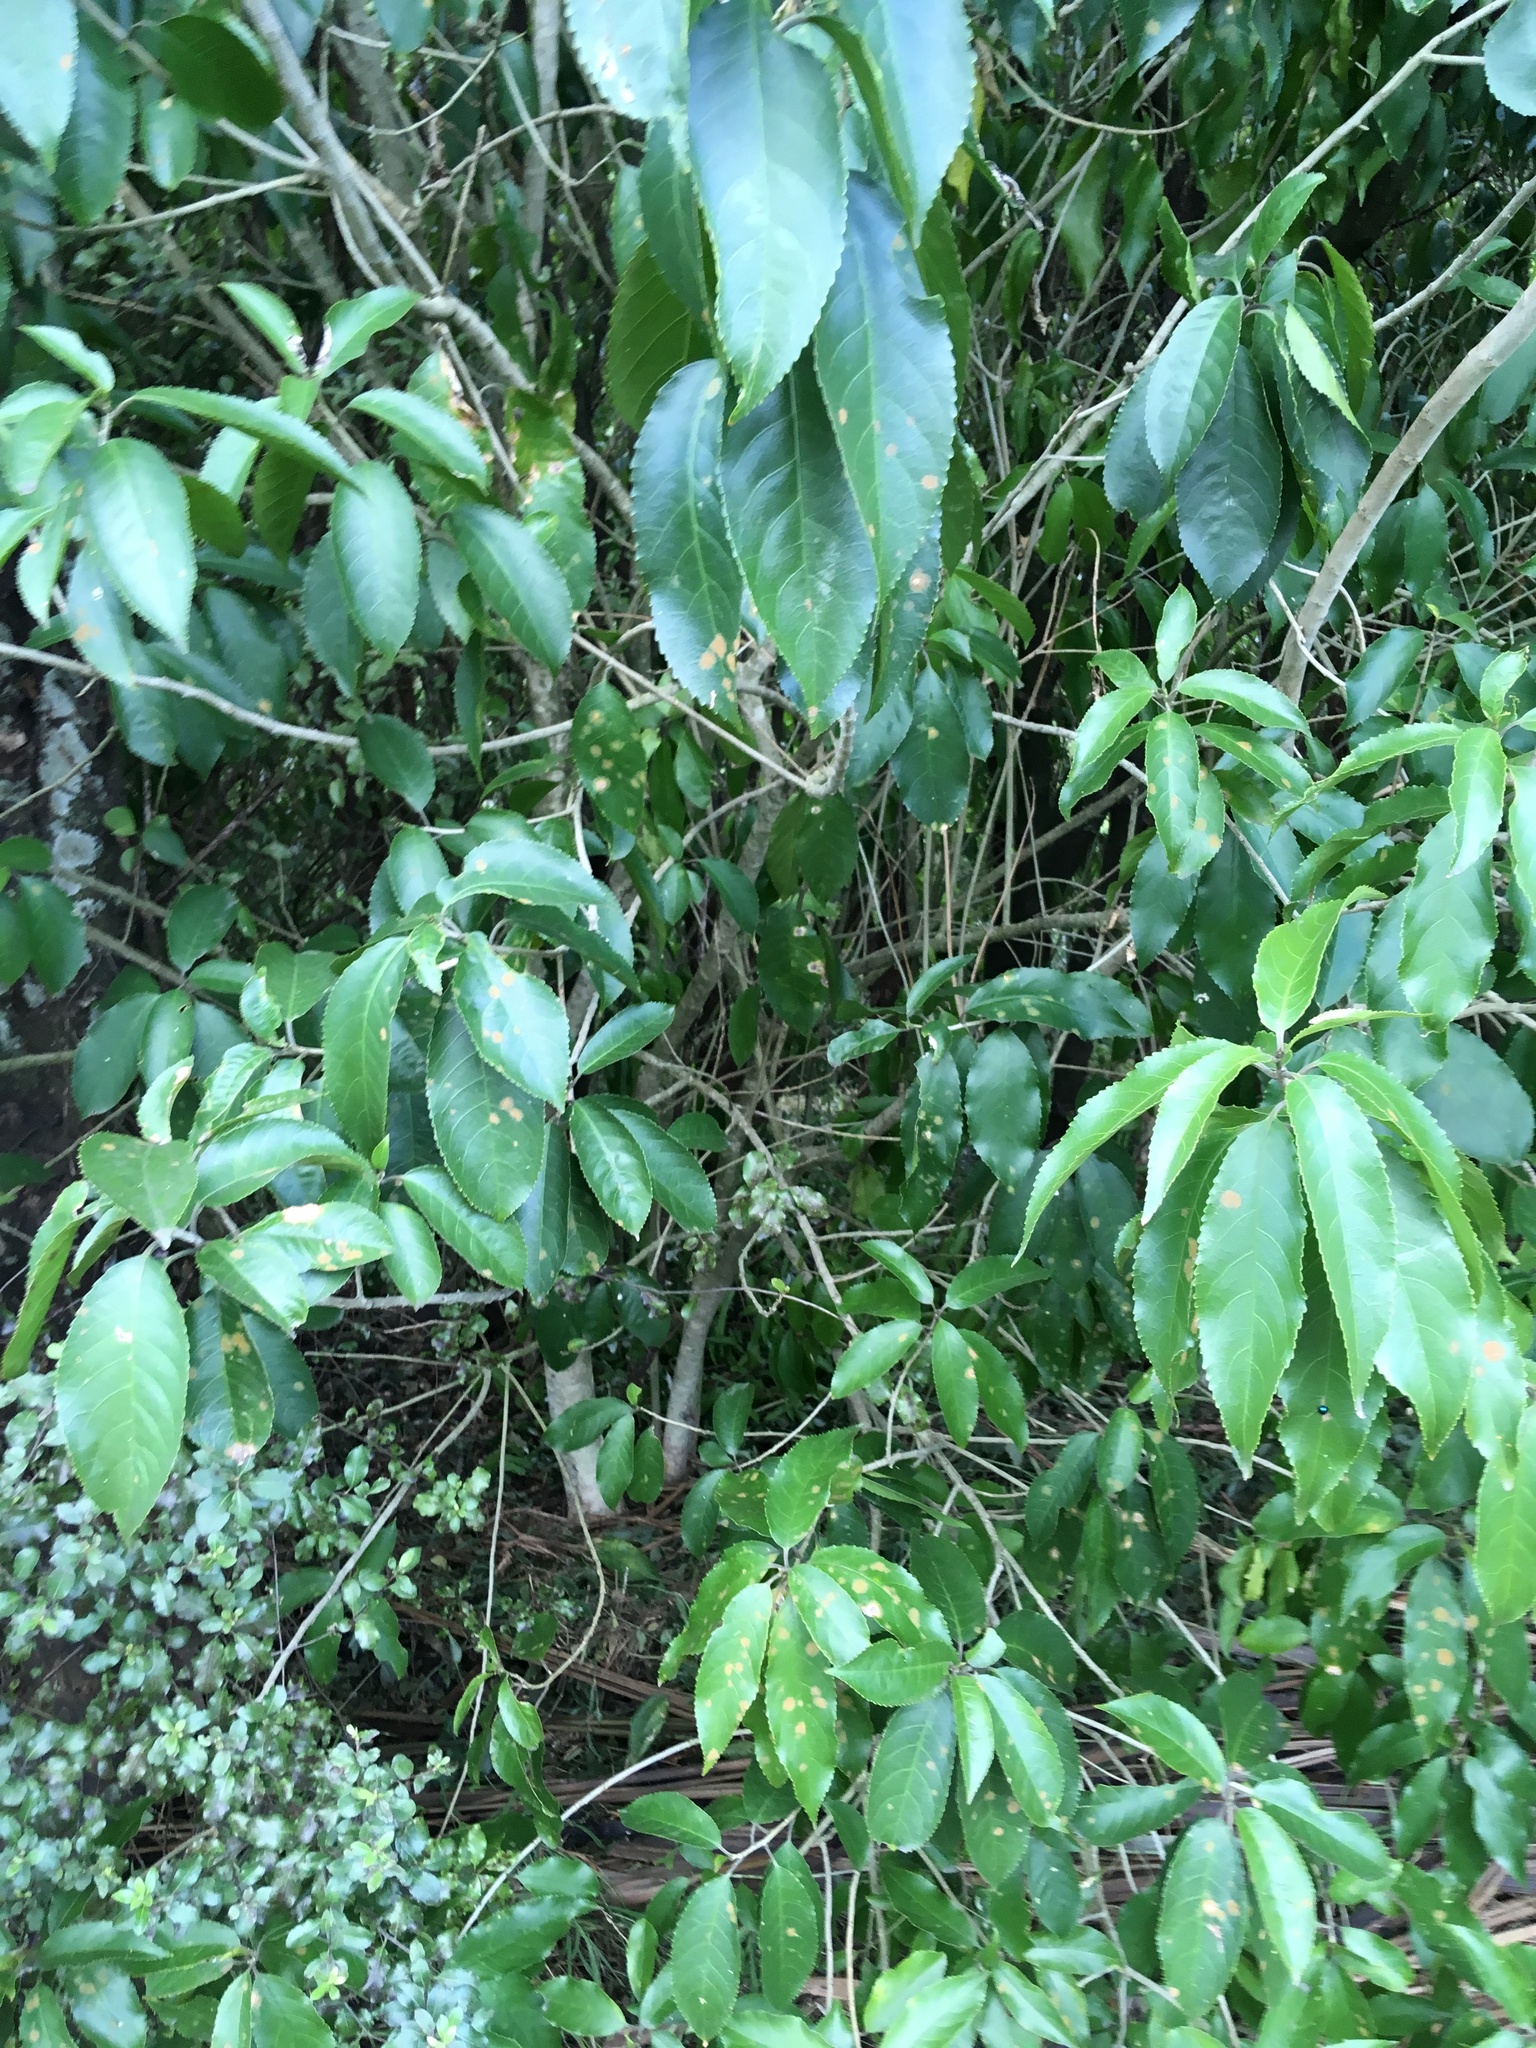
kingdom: Plantae
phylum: Tracheophyta
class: Magnoliopsida
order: Malpighiales
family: Violaceae
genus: Melicytus
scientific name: Melicytus ramiflorus
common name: Mahoe
